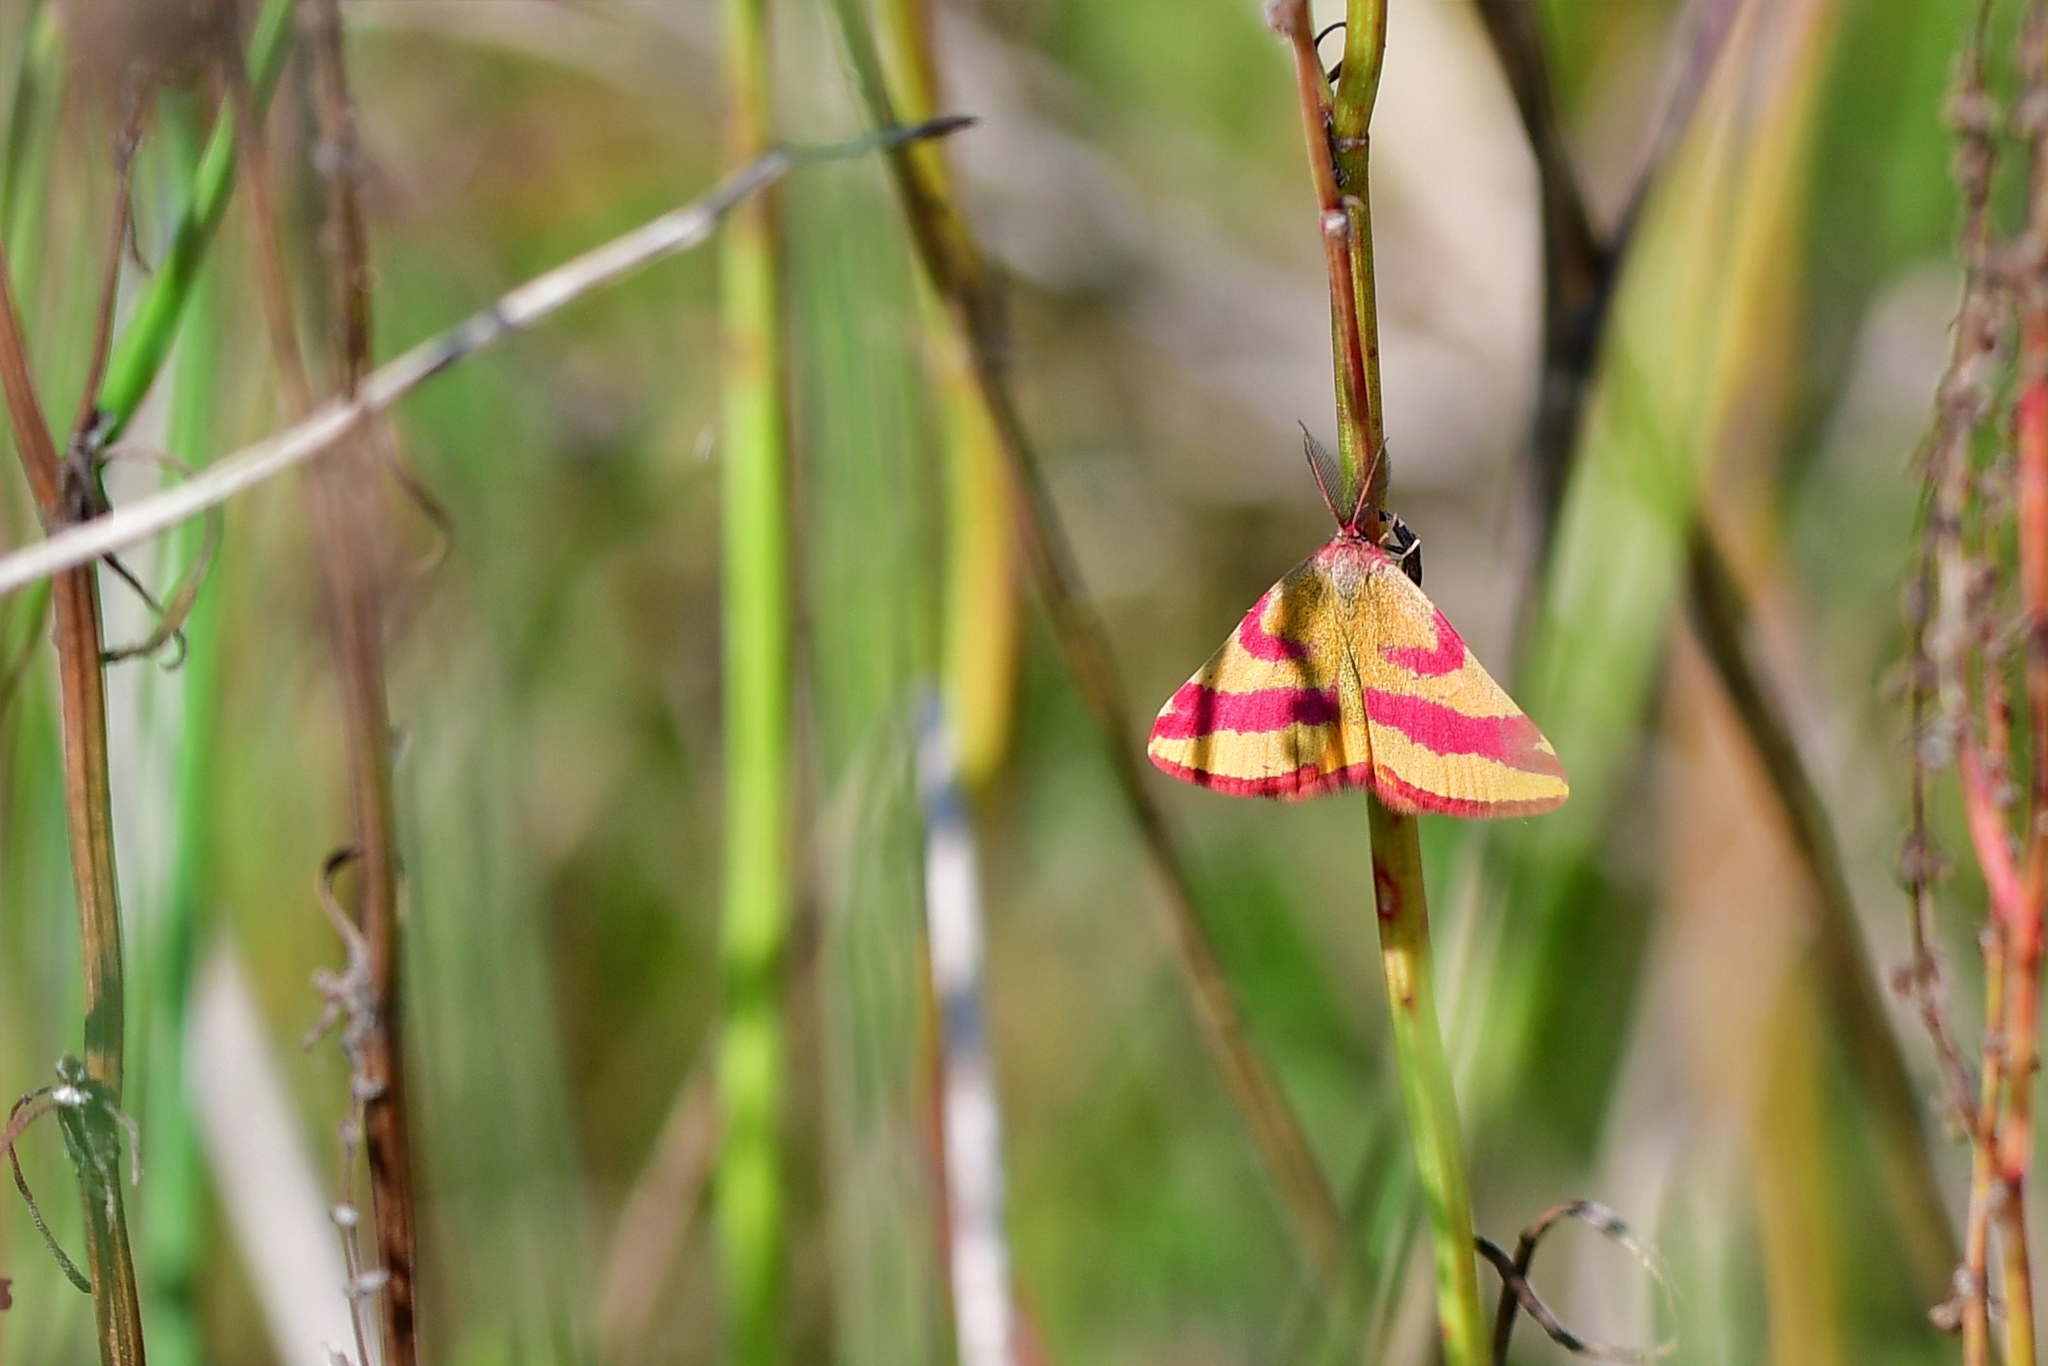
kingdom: Animalia
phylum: Arthropoda
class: Insecta
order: Lepidoptera
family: Geometridae
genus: Lythria
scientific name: Lythria cruentaria
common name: Purple-barred yellow
